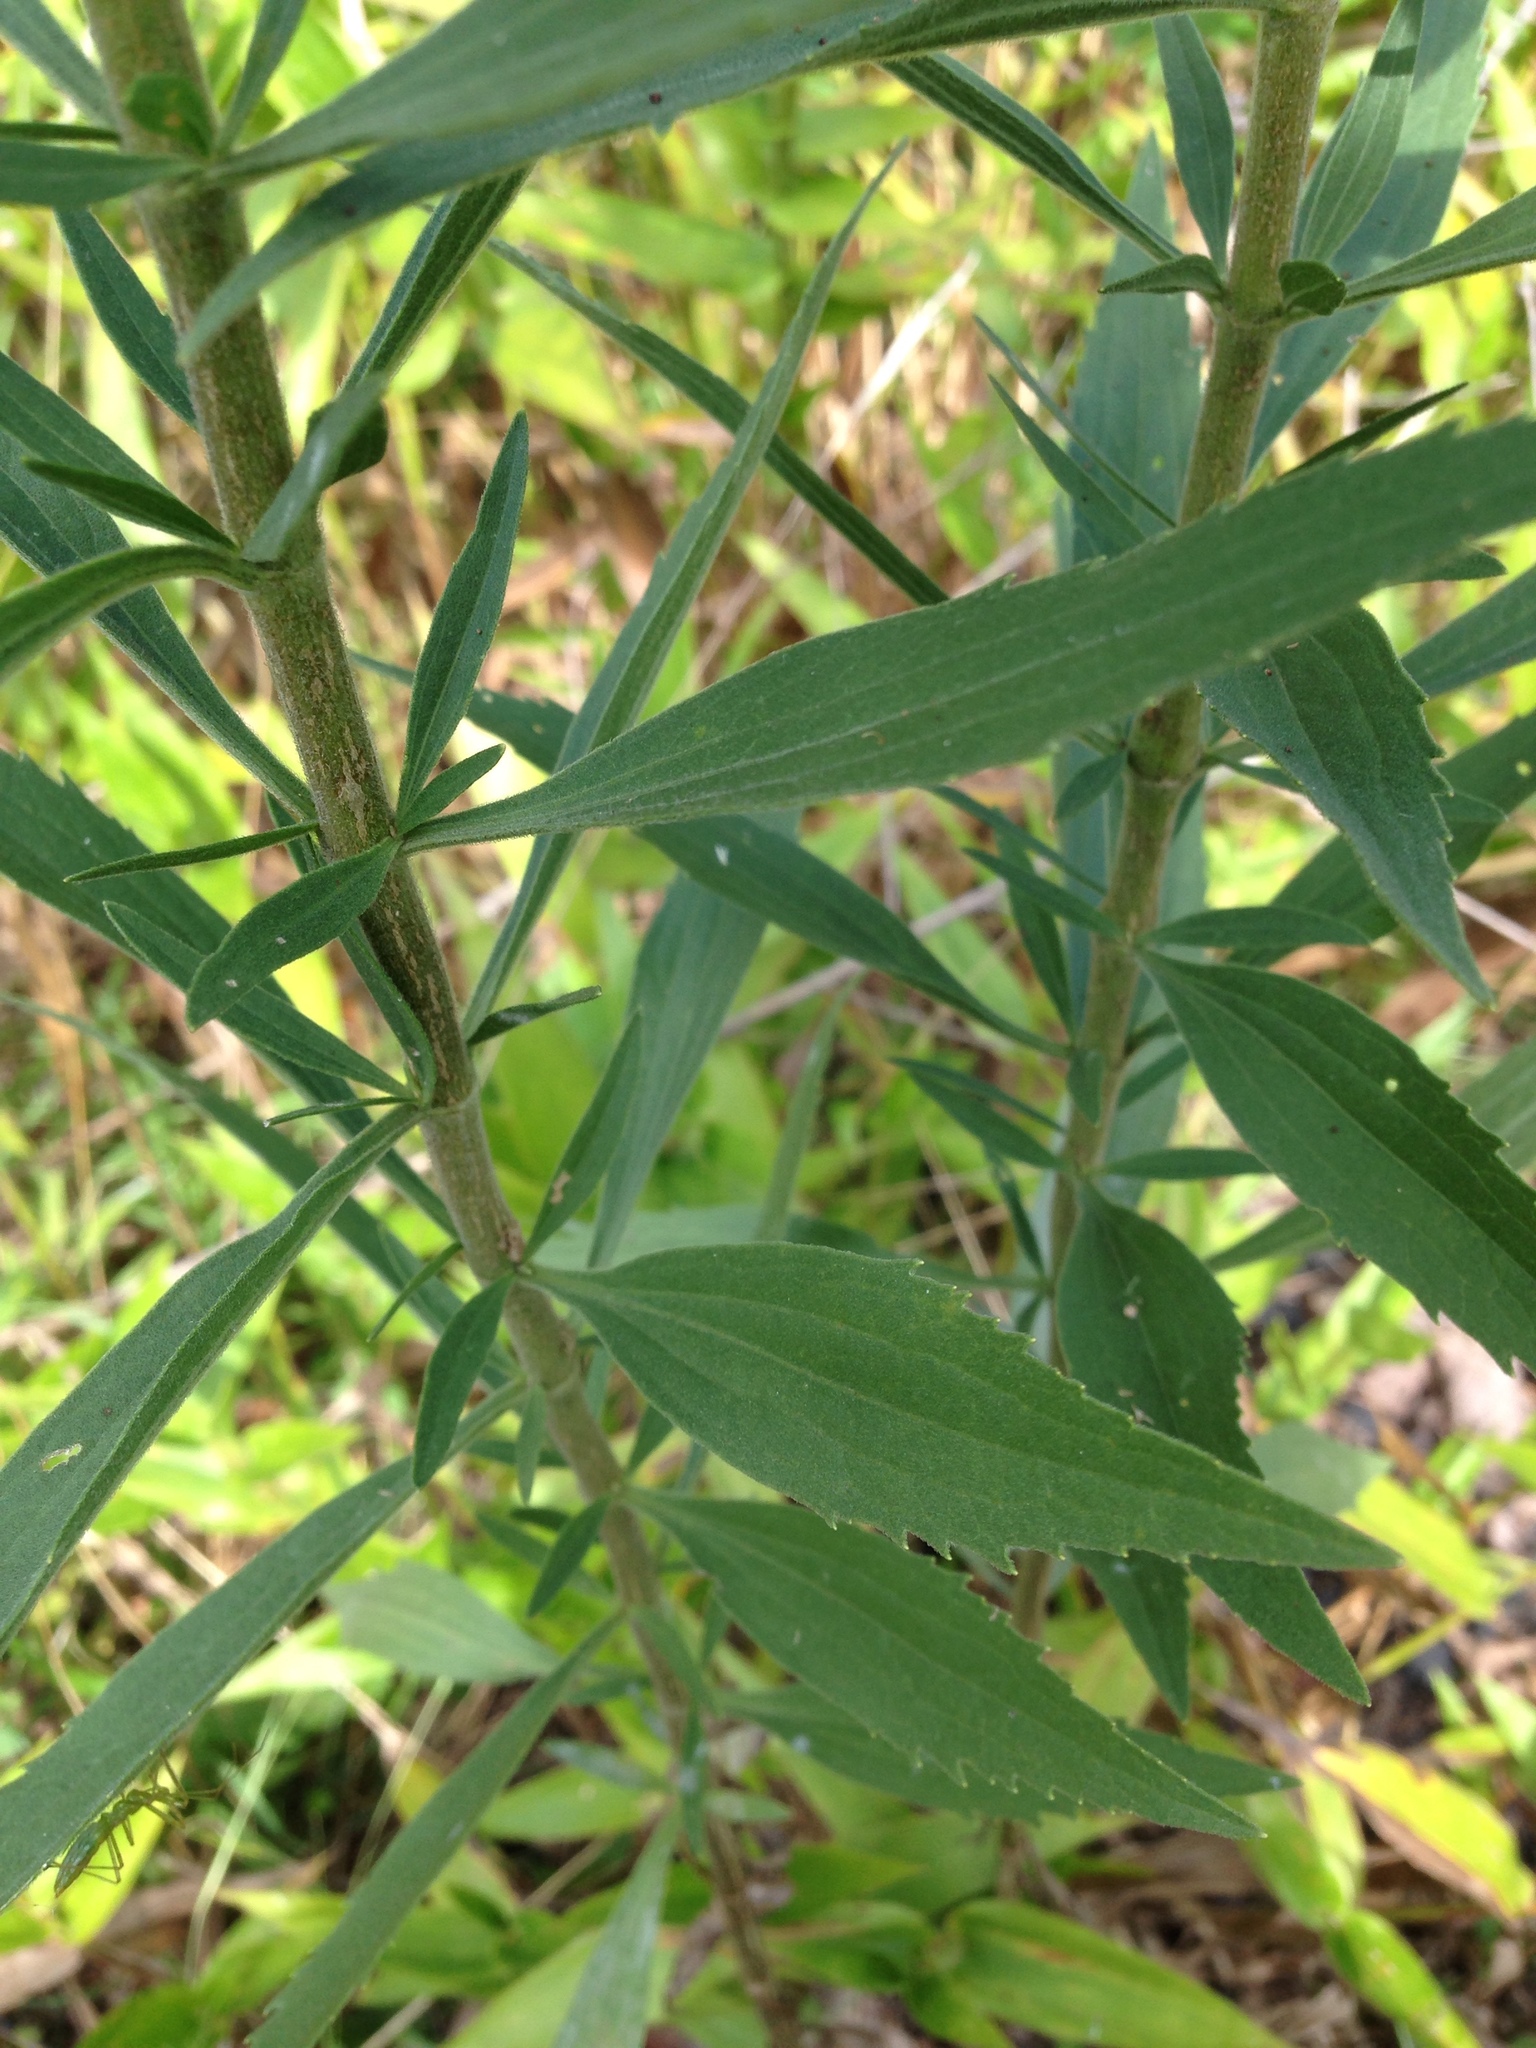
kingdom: Plantae
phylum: Tracheophyta
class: Magnoliopsida
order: Asterales
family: Asteraceae
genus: Eupatorium
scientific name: Eupatorium altissimum
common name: Tall thoroughwort
